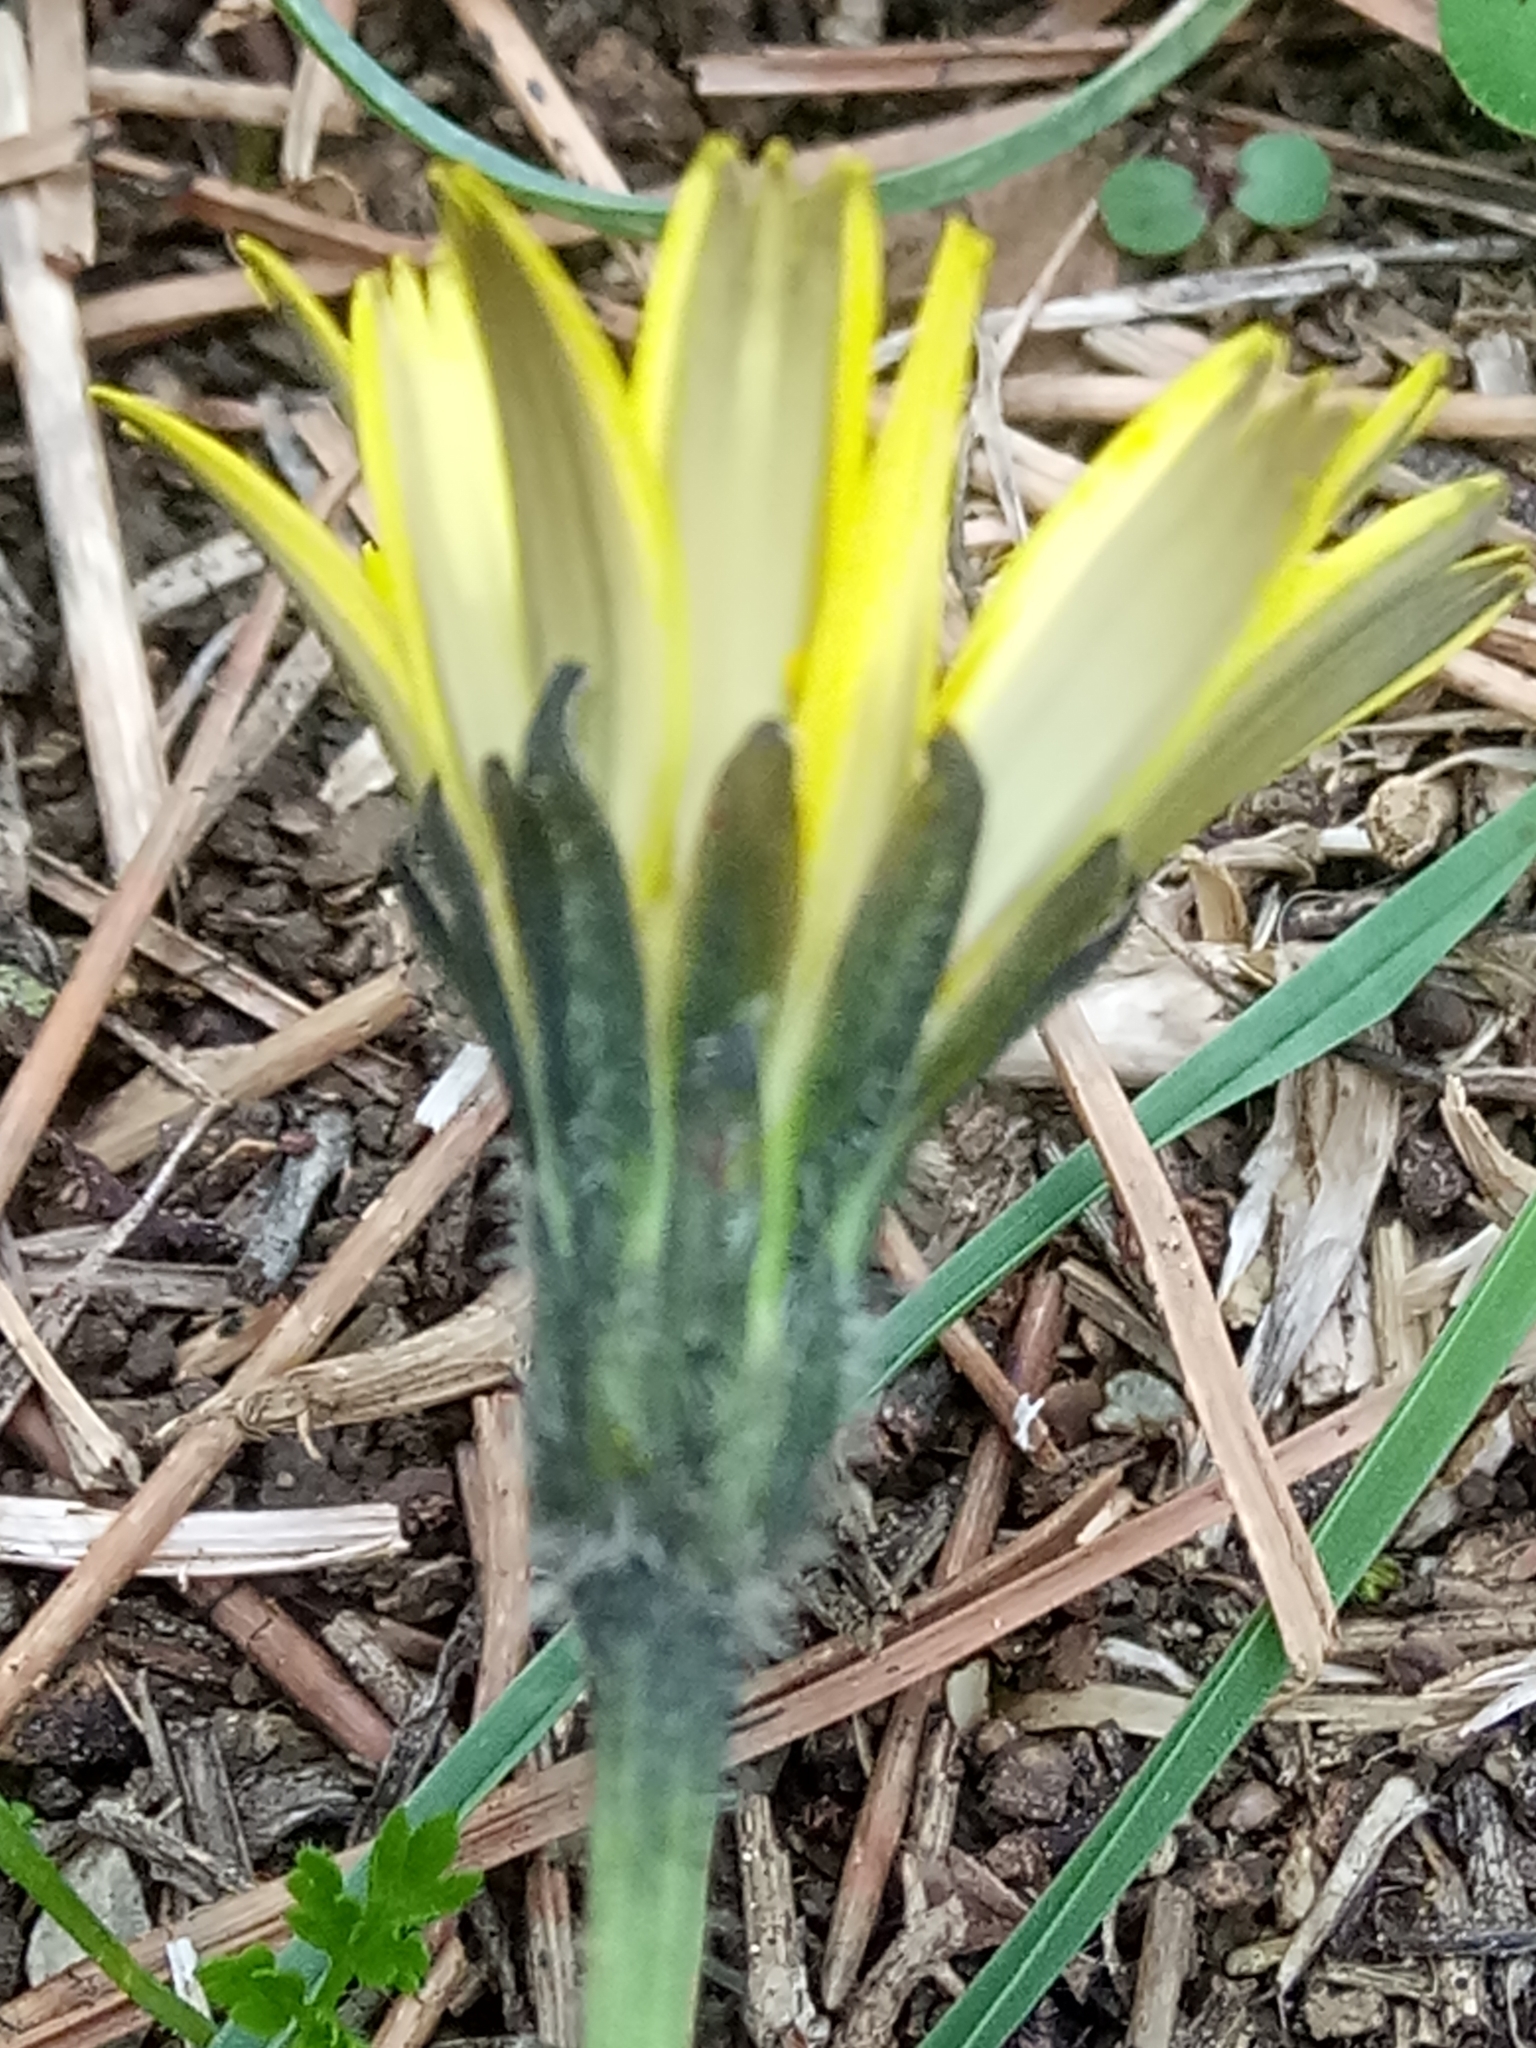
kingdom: Plantae
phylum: Tracheophyta
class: Magnoliopsida
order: Asterales
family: Asteraceae
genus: Leontodon
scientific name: Leontodon tuberosus
